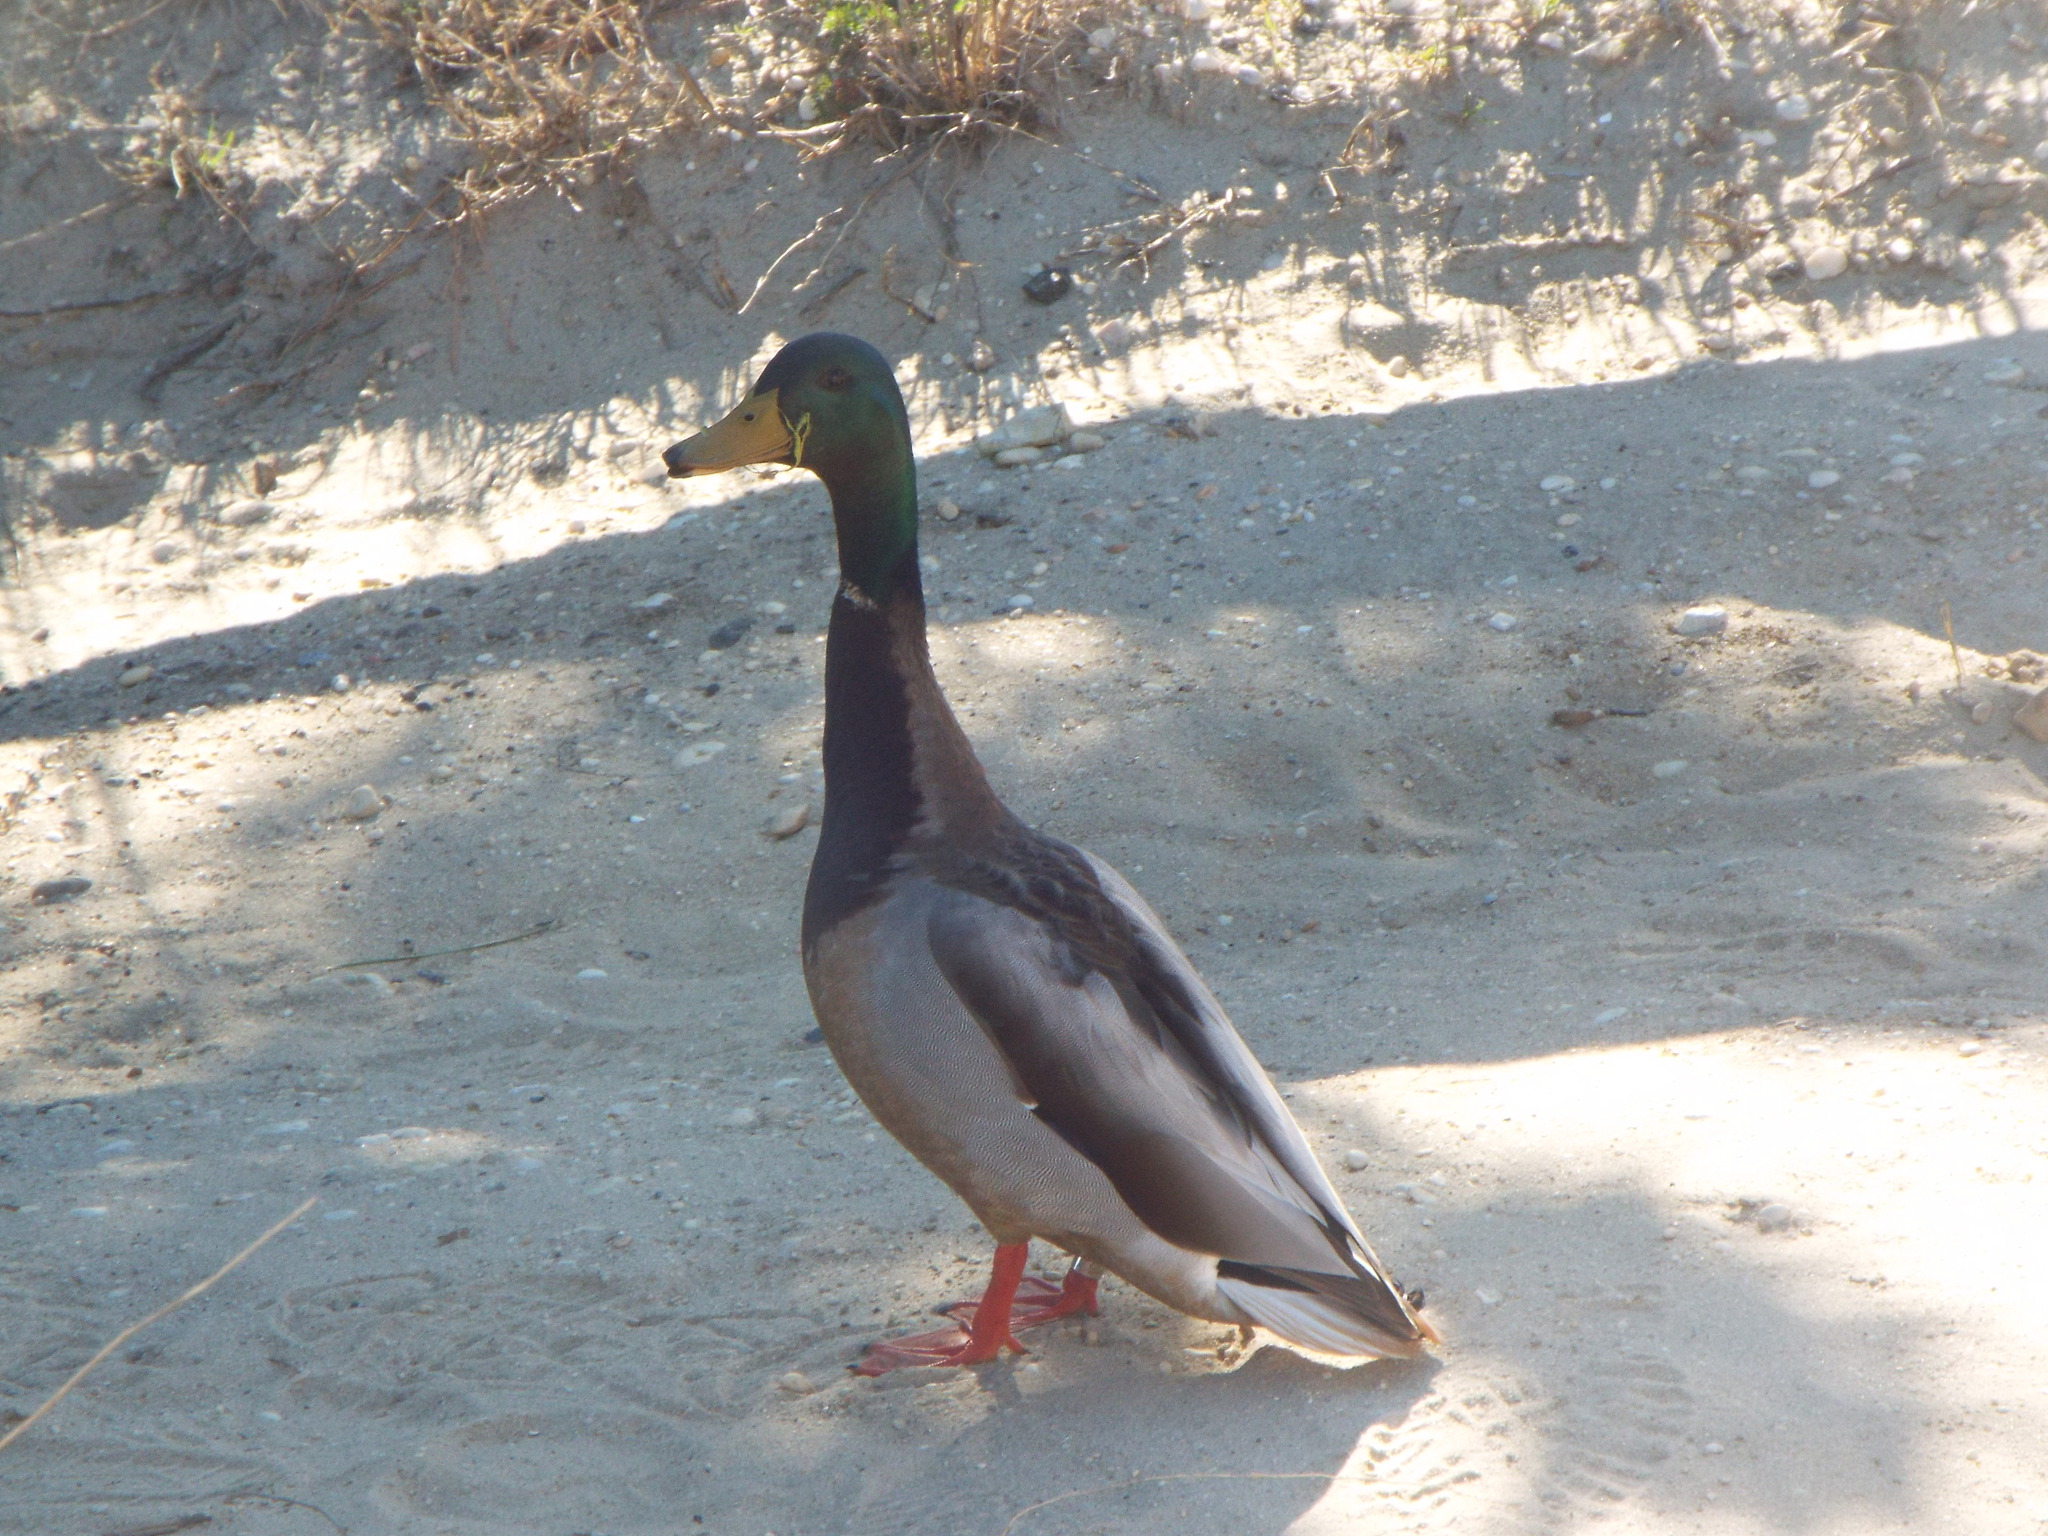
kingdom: Animalia
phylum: Chordata
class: Aves
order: Anseriformes
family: Anatidae
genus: Anas
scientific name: Anas platyrhynchos
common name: Mallard
